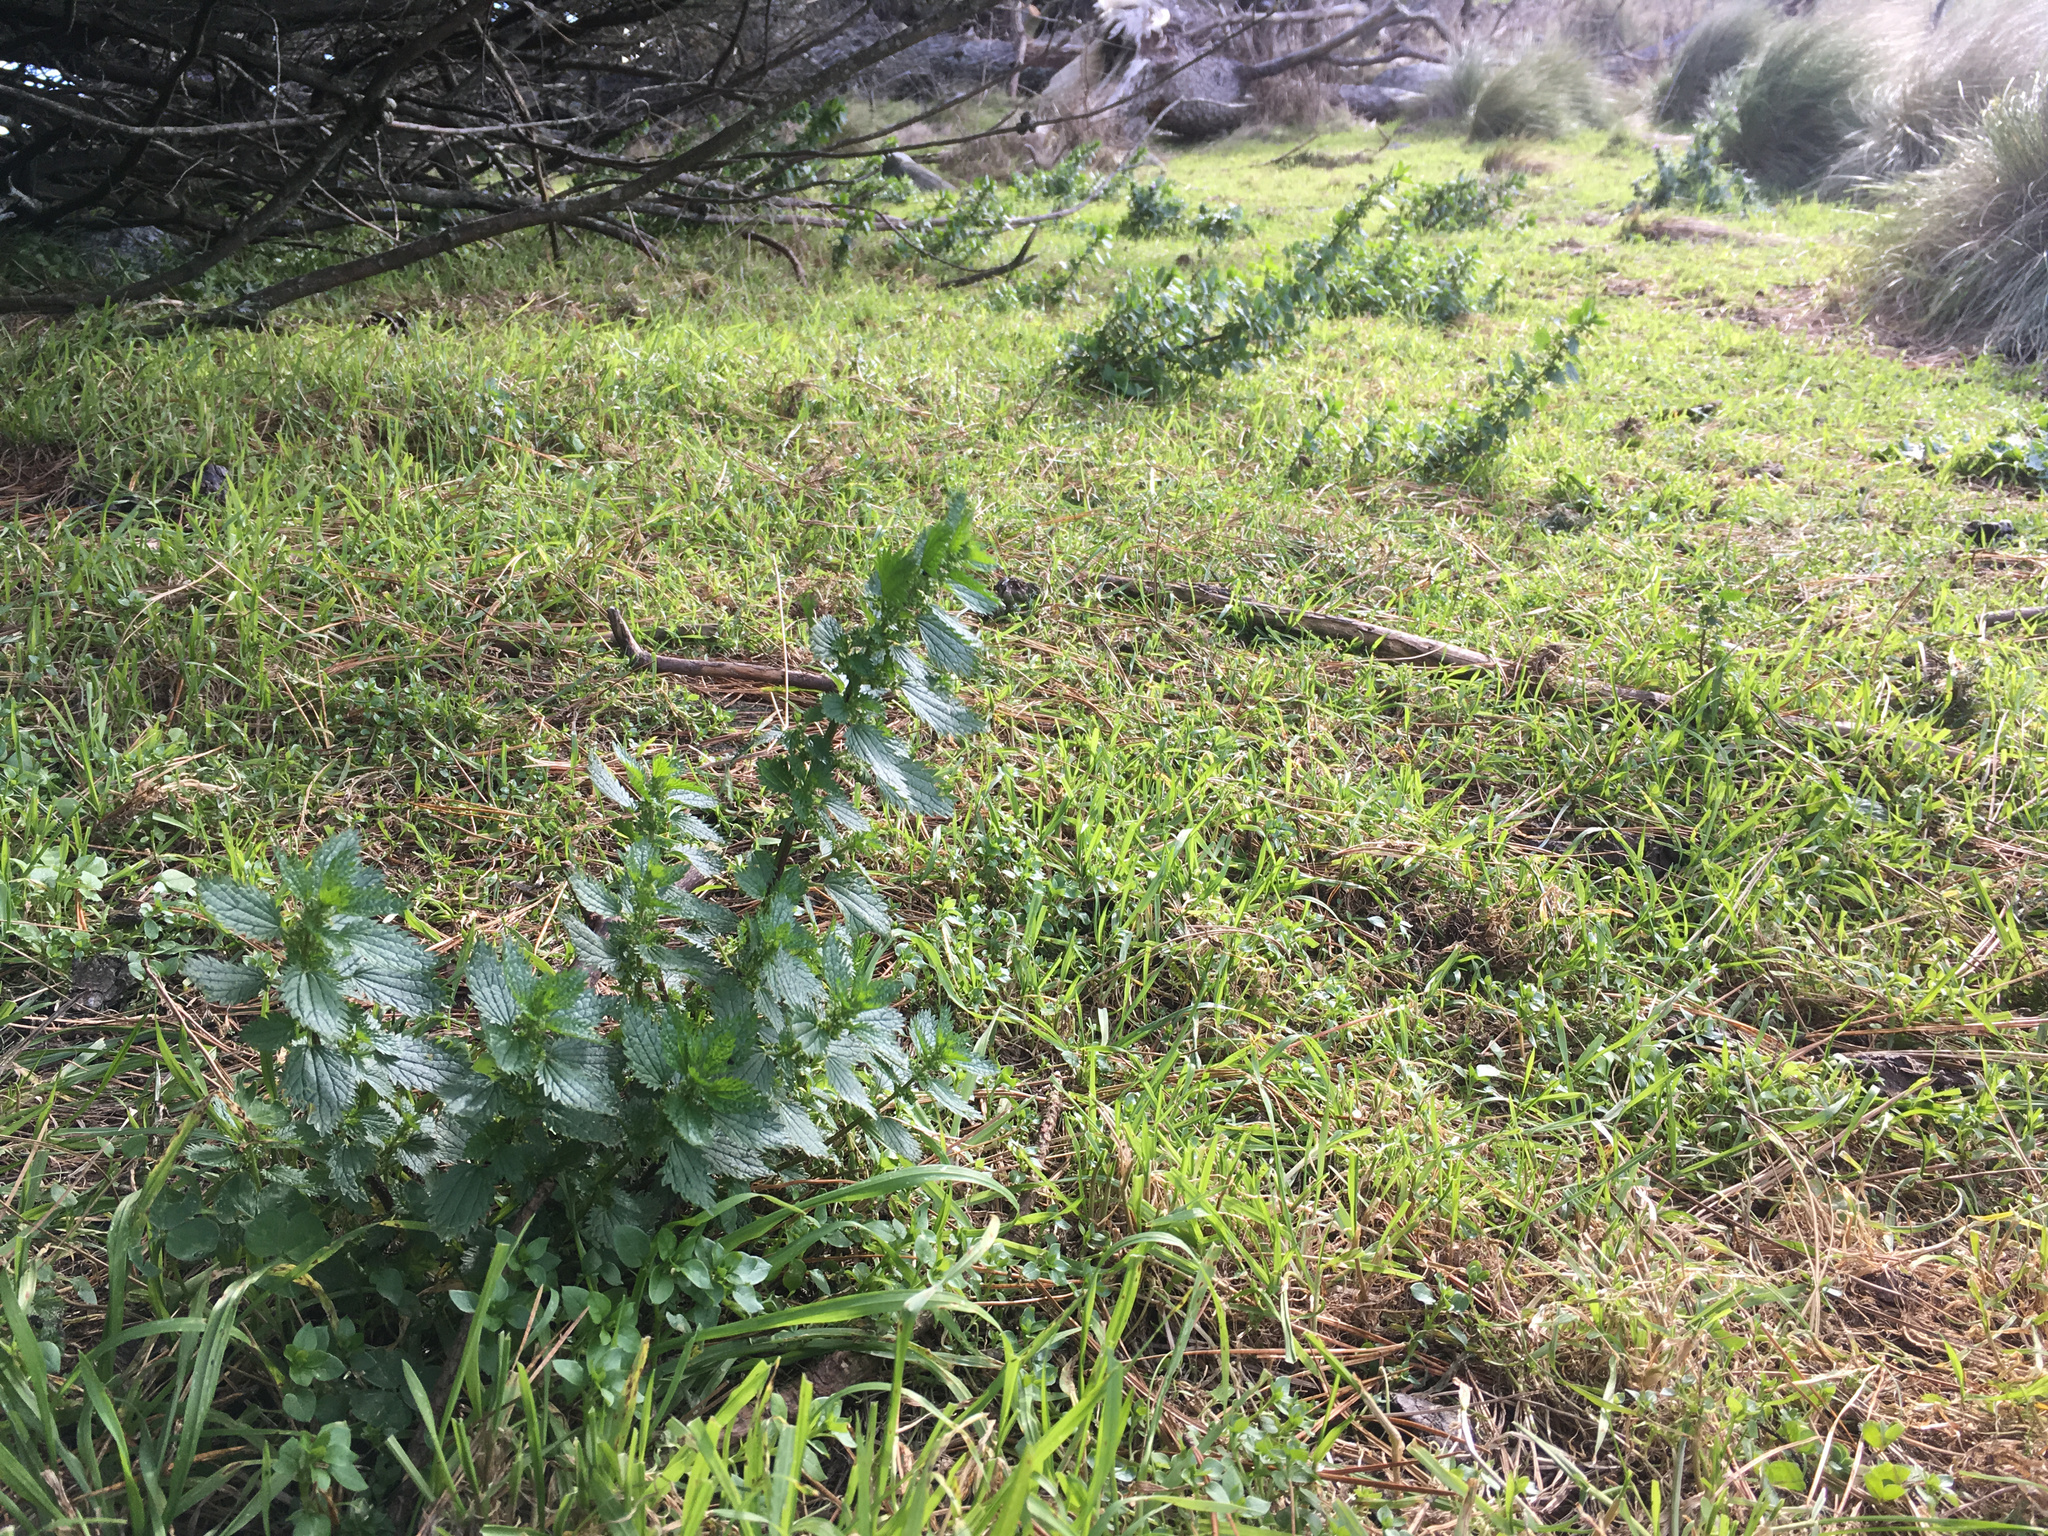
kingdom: Plantae
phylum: Tracheophyta
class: Magnoliopsida
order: Rosales
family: Urticaceae
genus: Urtica
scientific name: Urtica urens
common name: Dwarf nettle
